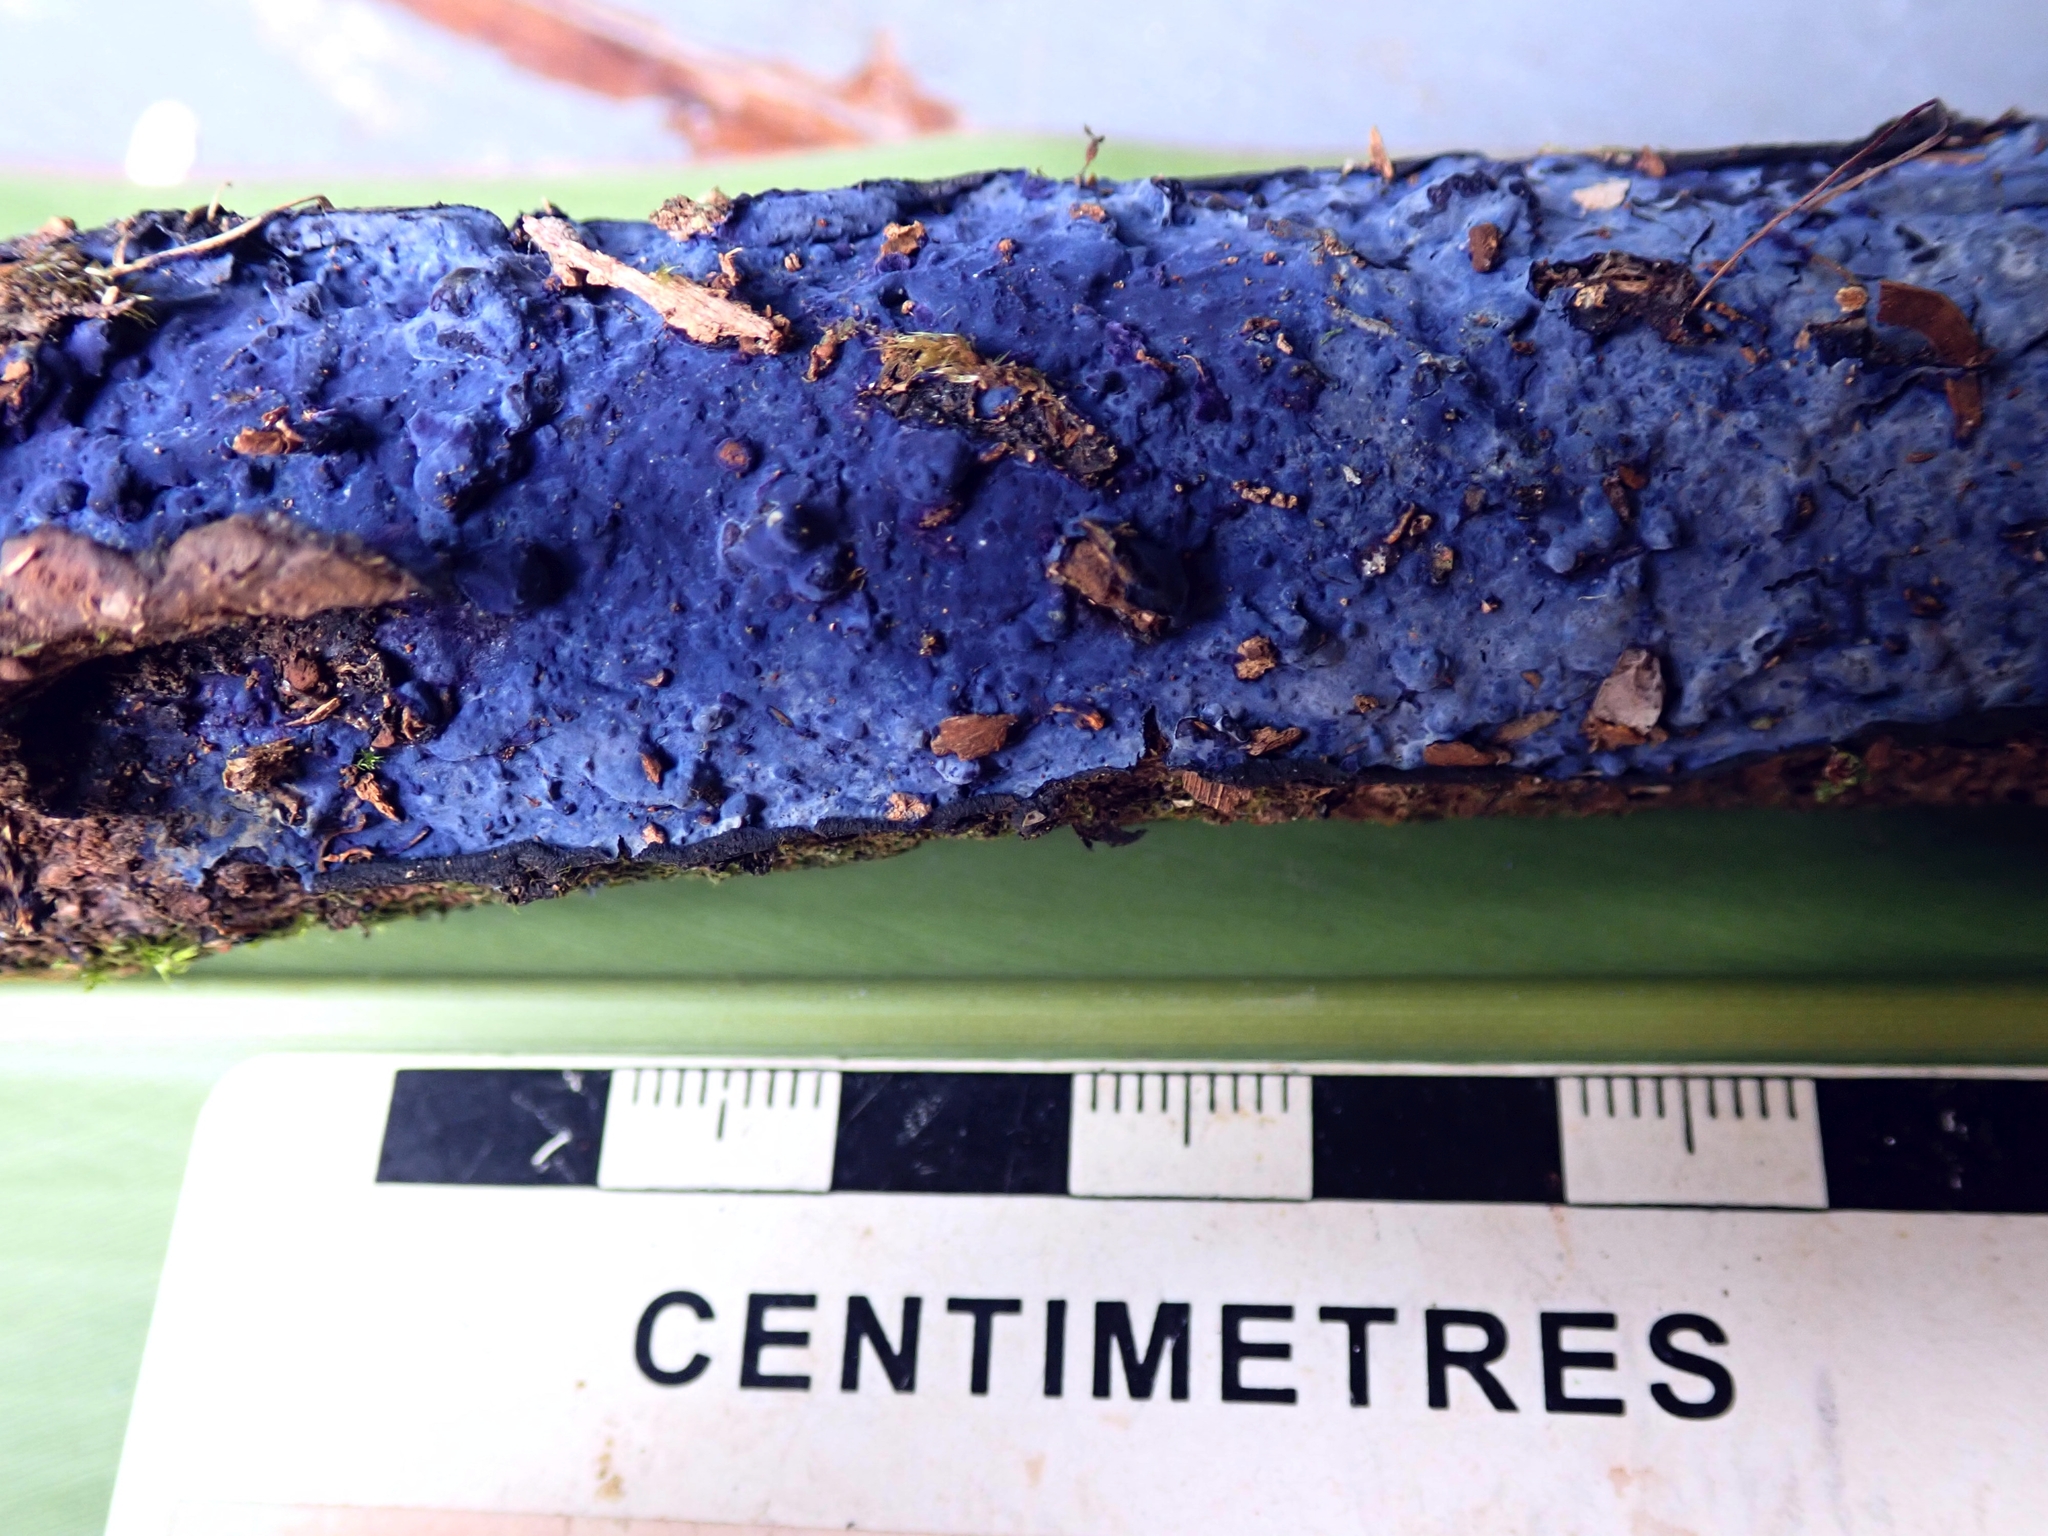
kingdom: Fungi
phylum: Basidiomycota
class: Agaricomycetes
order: Polyporales
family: Phanerochaetaceae
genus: Terana
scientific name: Terana coerulea
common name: Cobalt crust
